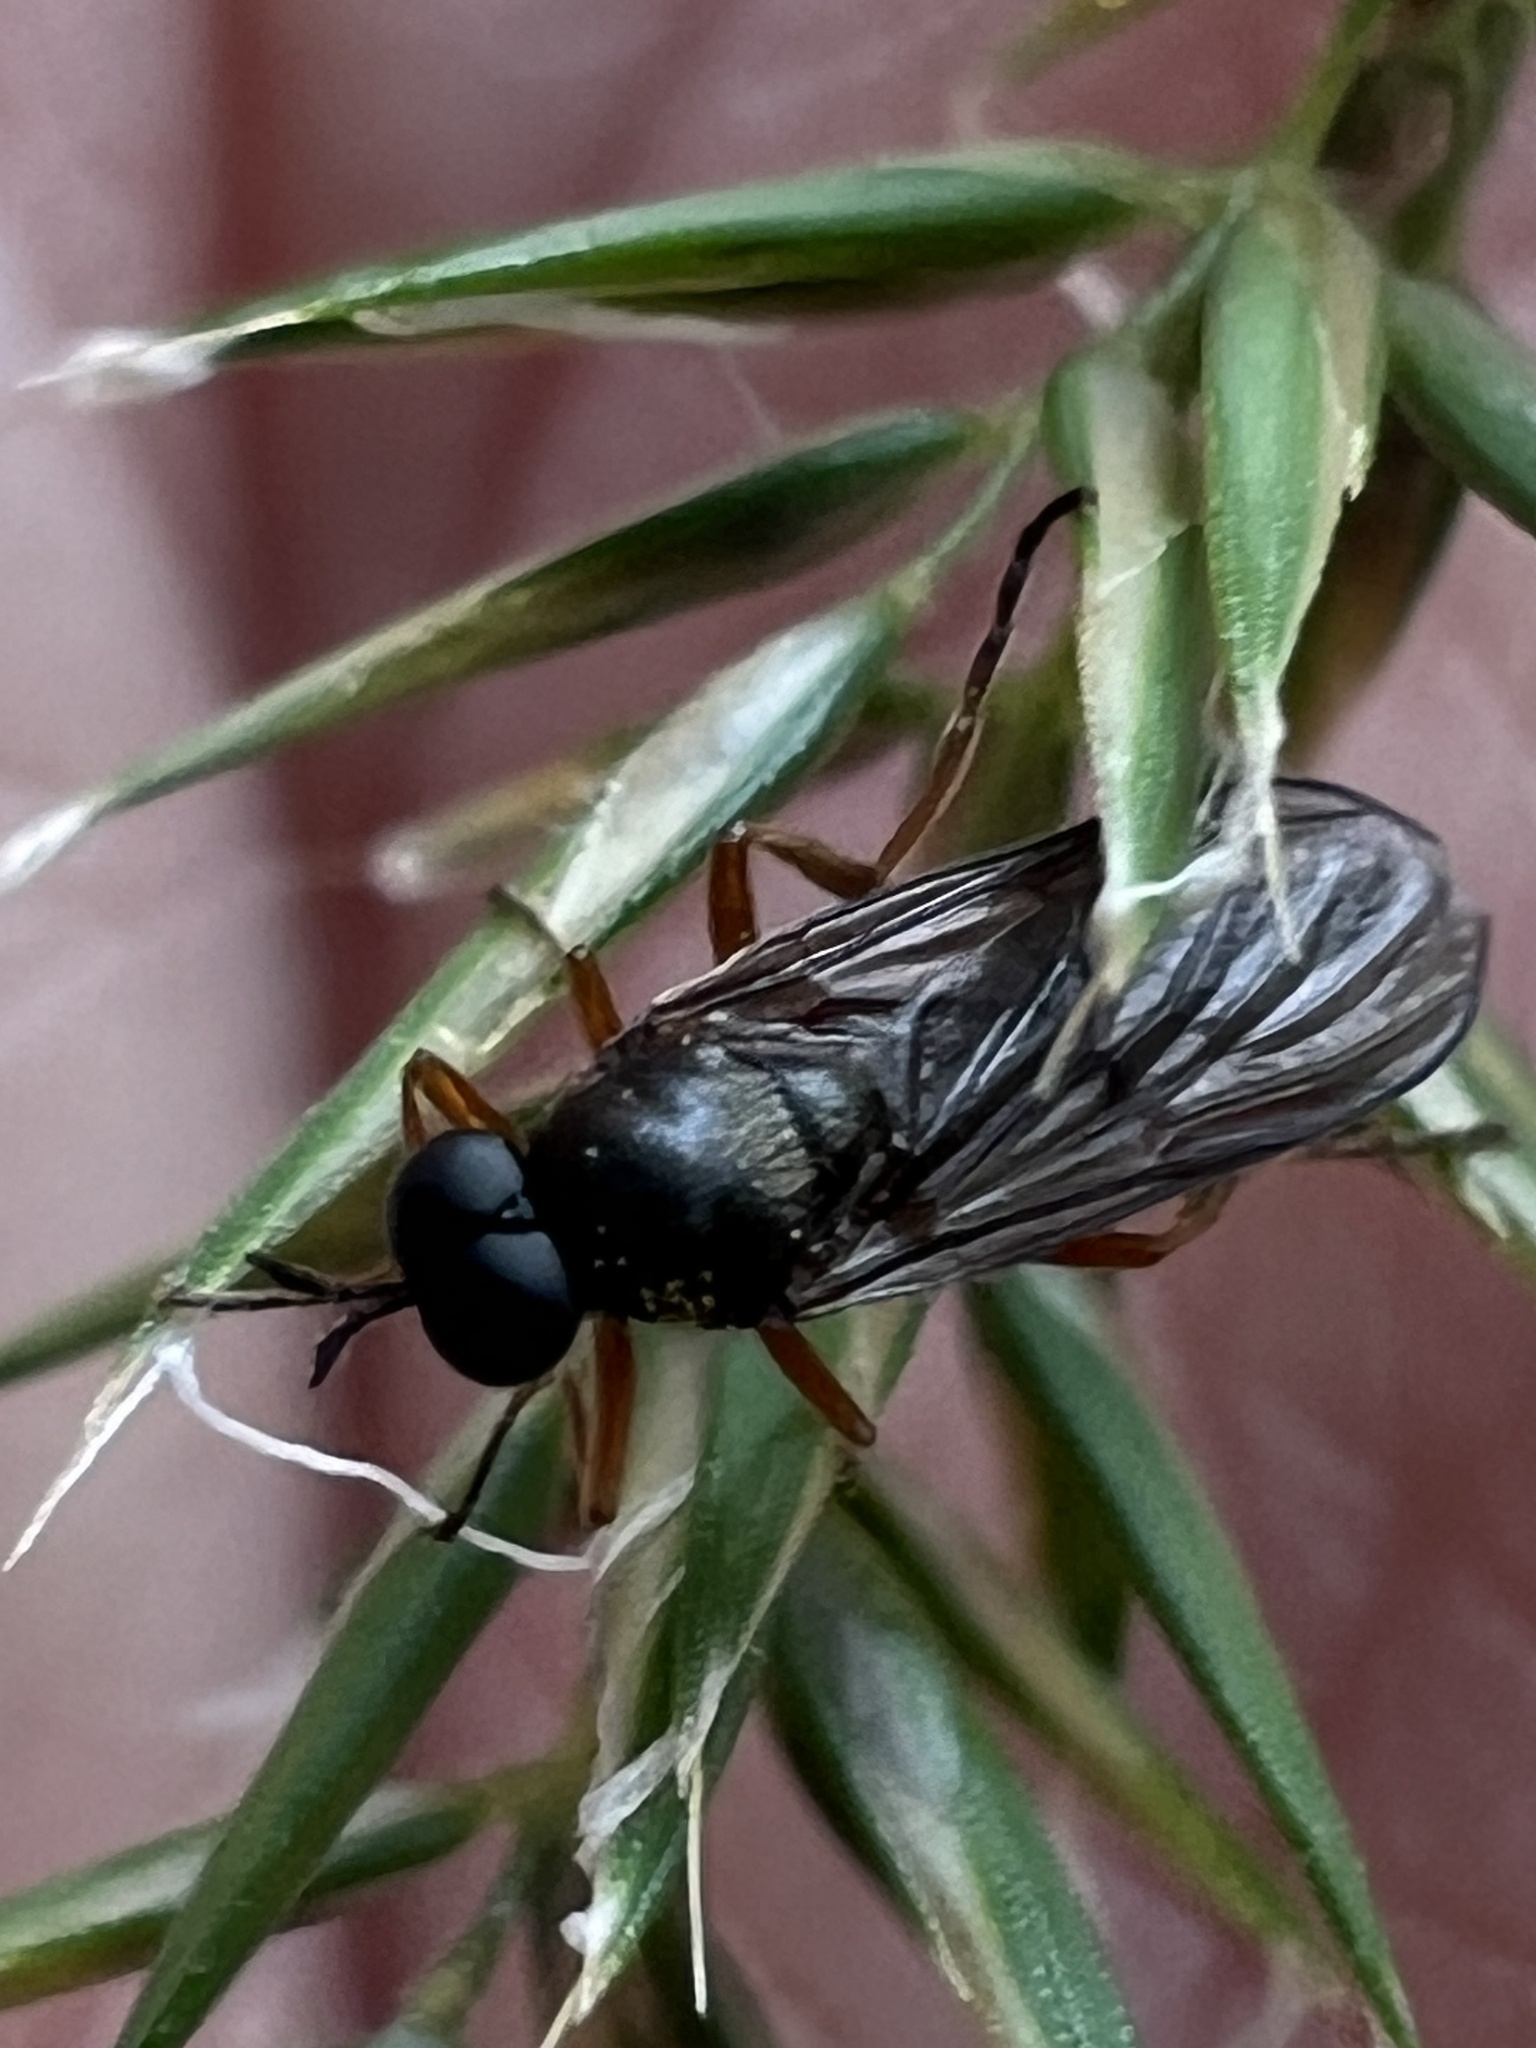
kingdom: Animalia
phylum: Arthropoda
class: Insecta
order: Diptera
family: Stratiomyidae
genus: Inopus
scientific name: Inopus rubriceps
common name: Soldier fly
